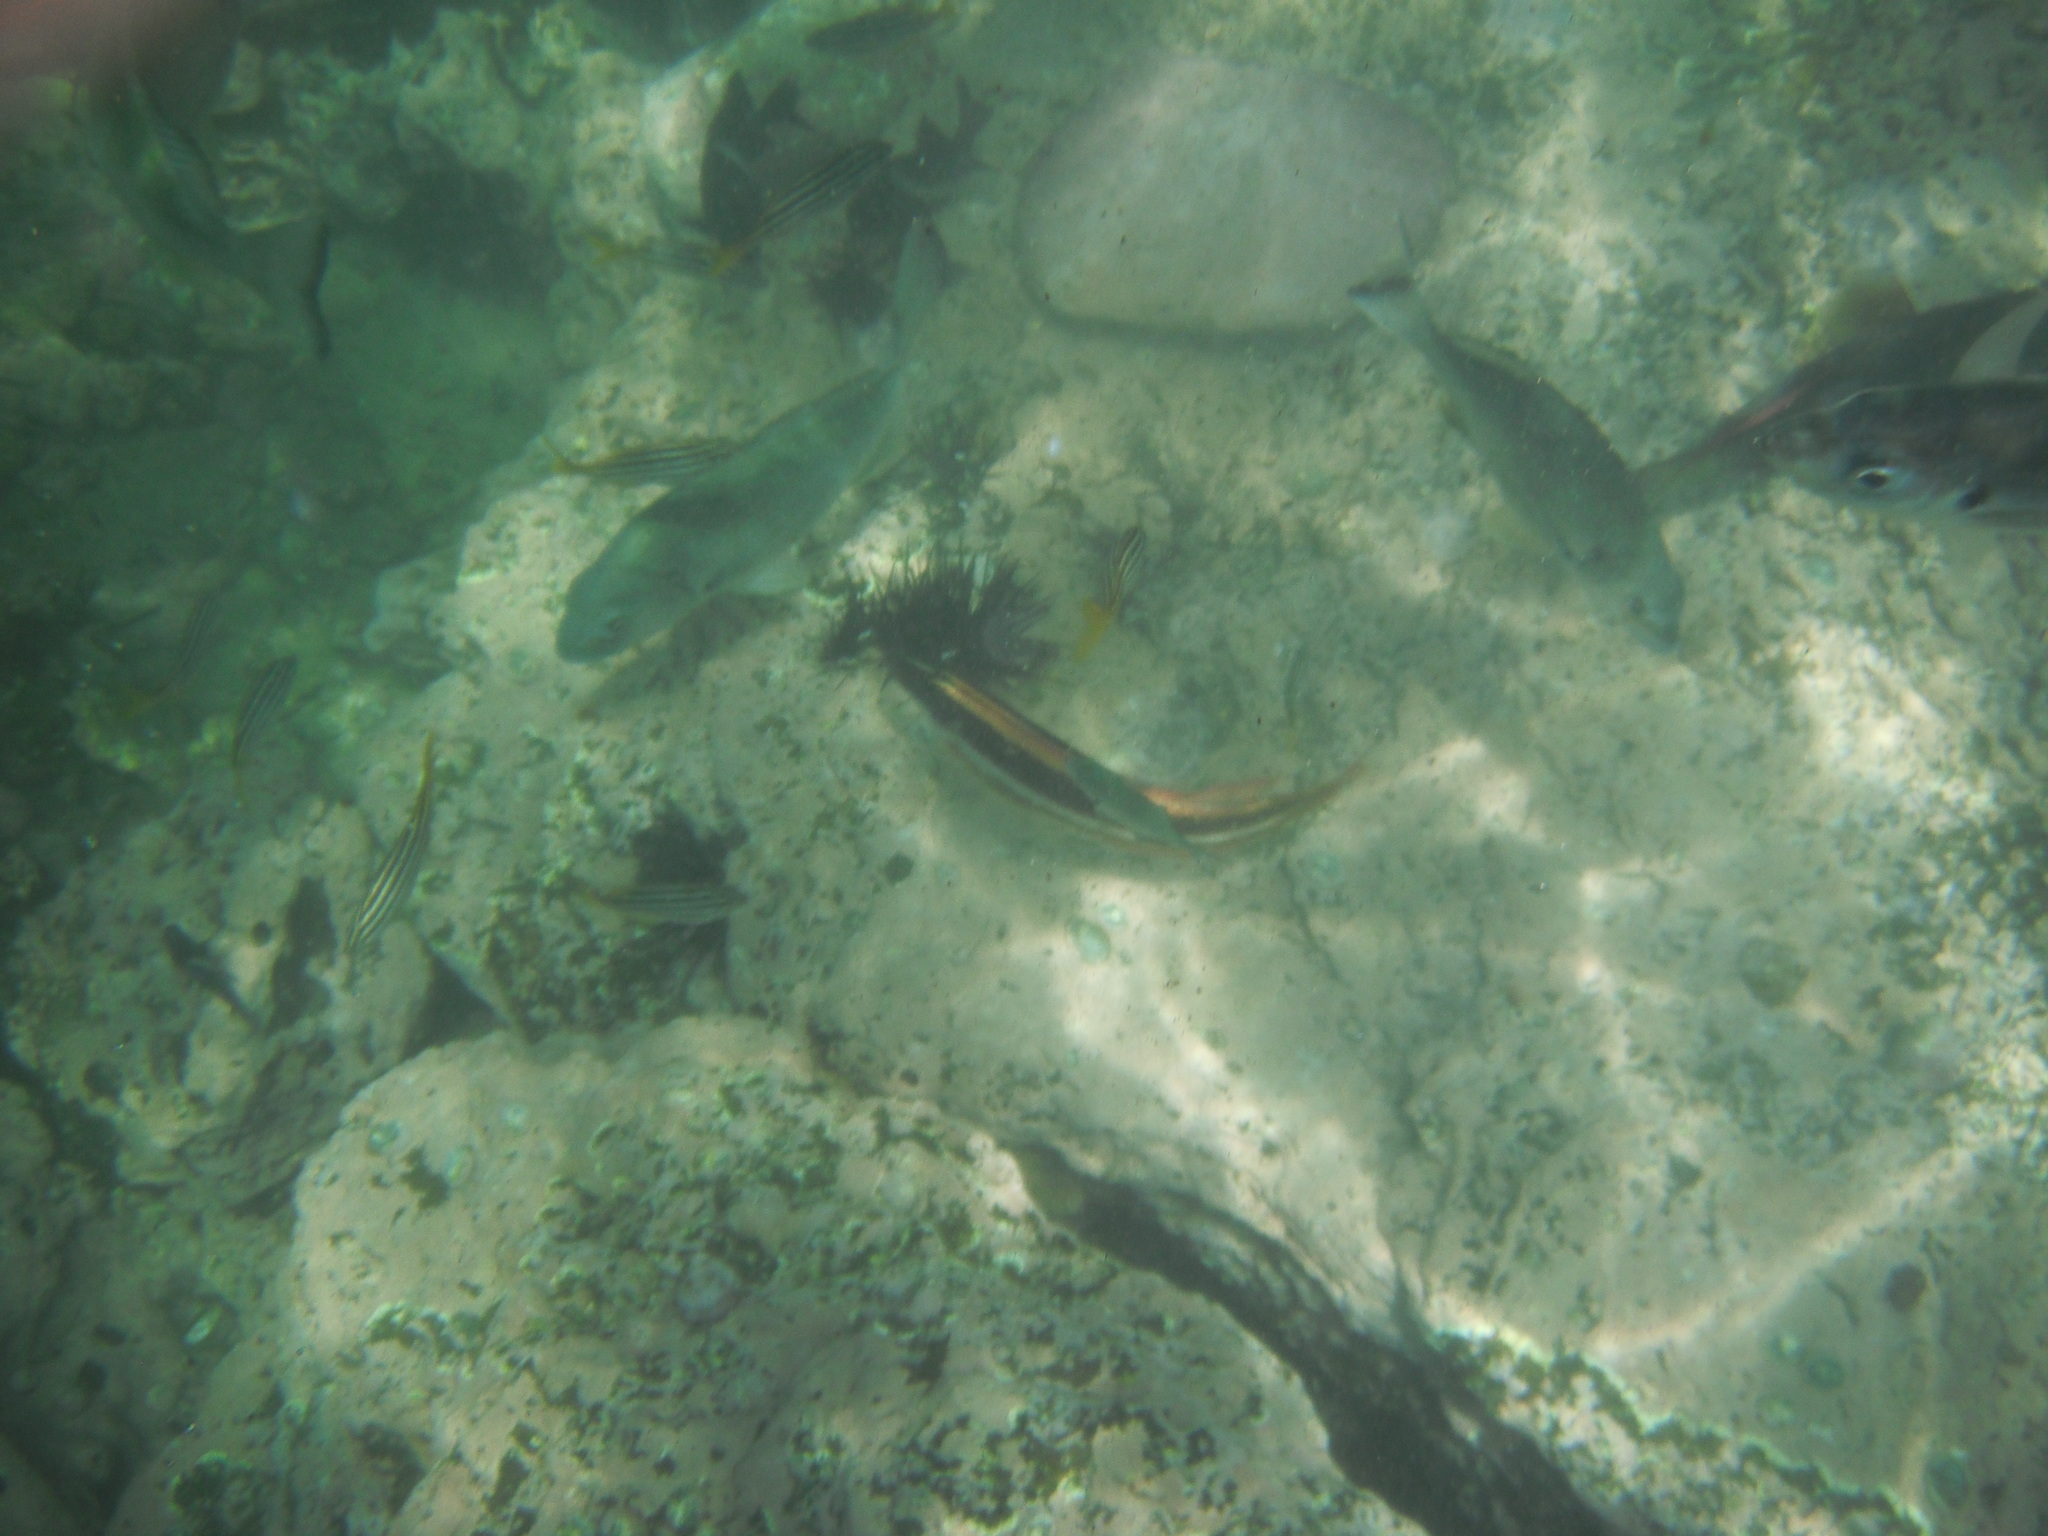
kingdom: Animalia
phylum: Chordata
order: Perciformes
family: Kyphosidae
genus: Scorpis
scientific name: Scorpis lineolata
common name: Sweep
